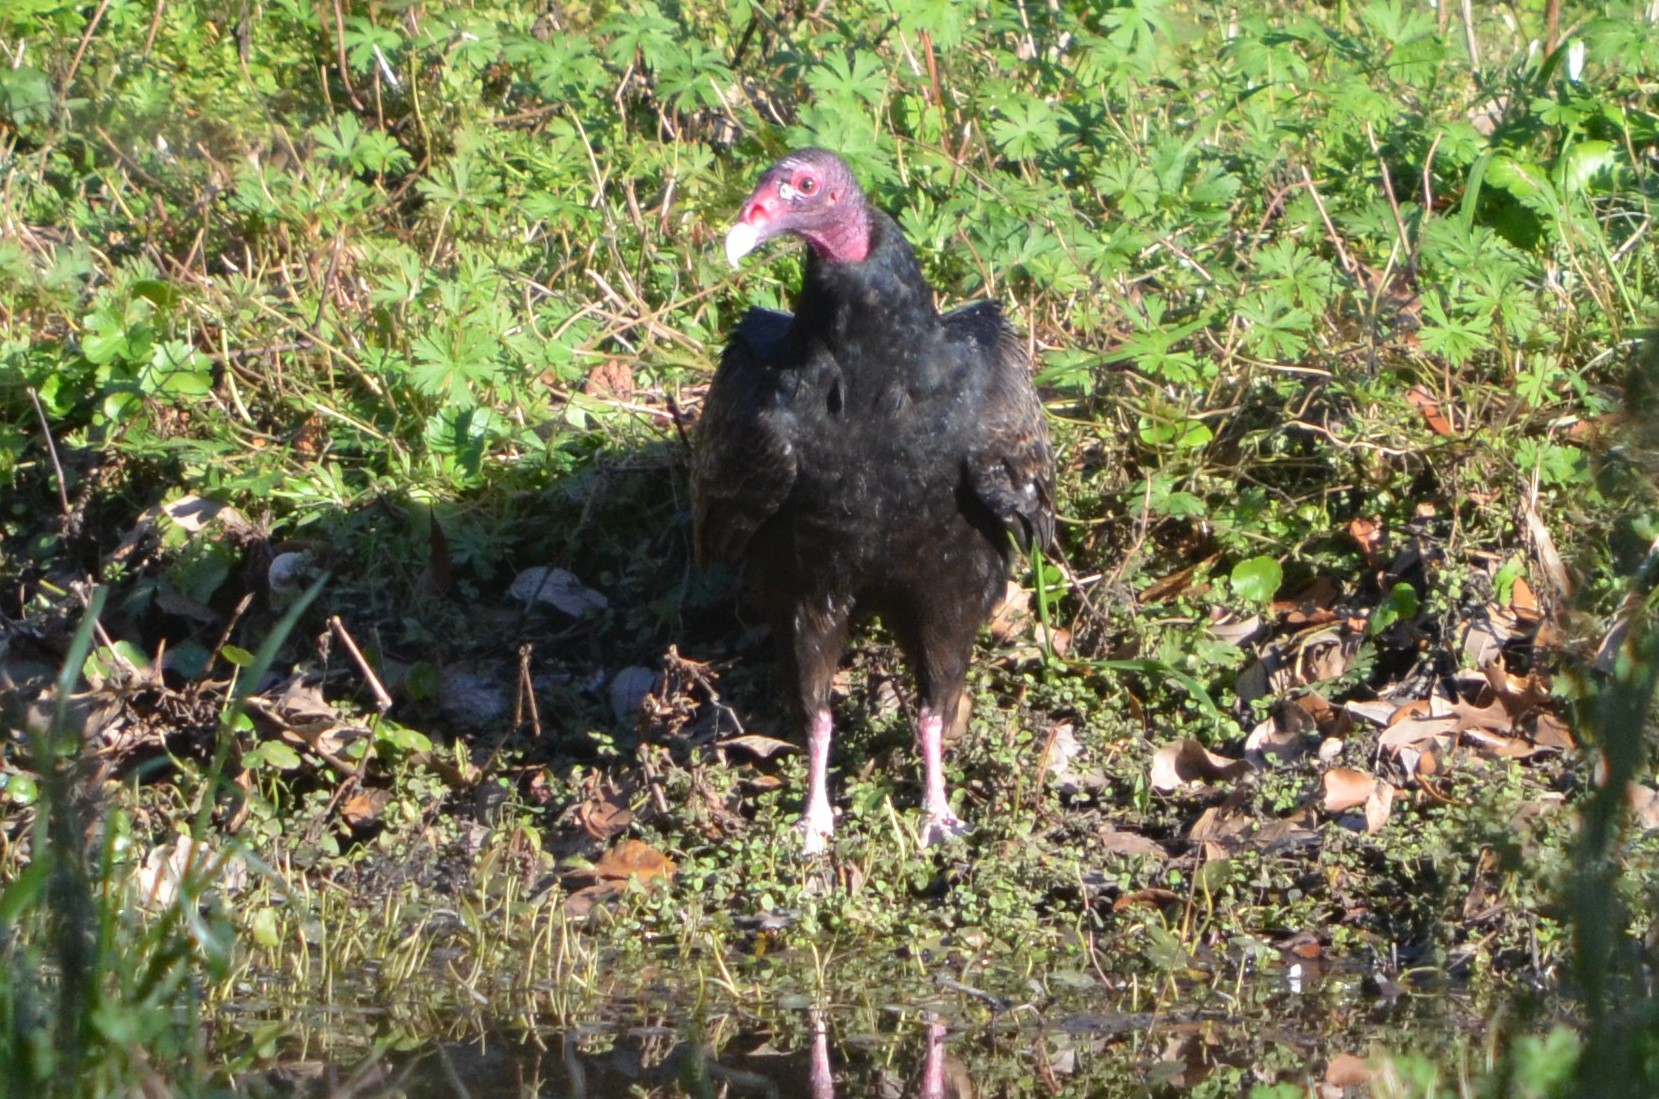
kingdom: Animalia
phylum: Chordata
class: Aves
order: Accipitriformes
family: Cathartidae
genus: Cathartes
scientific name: Cathartes aura
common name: Turkey vulture
